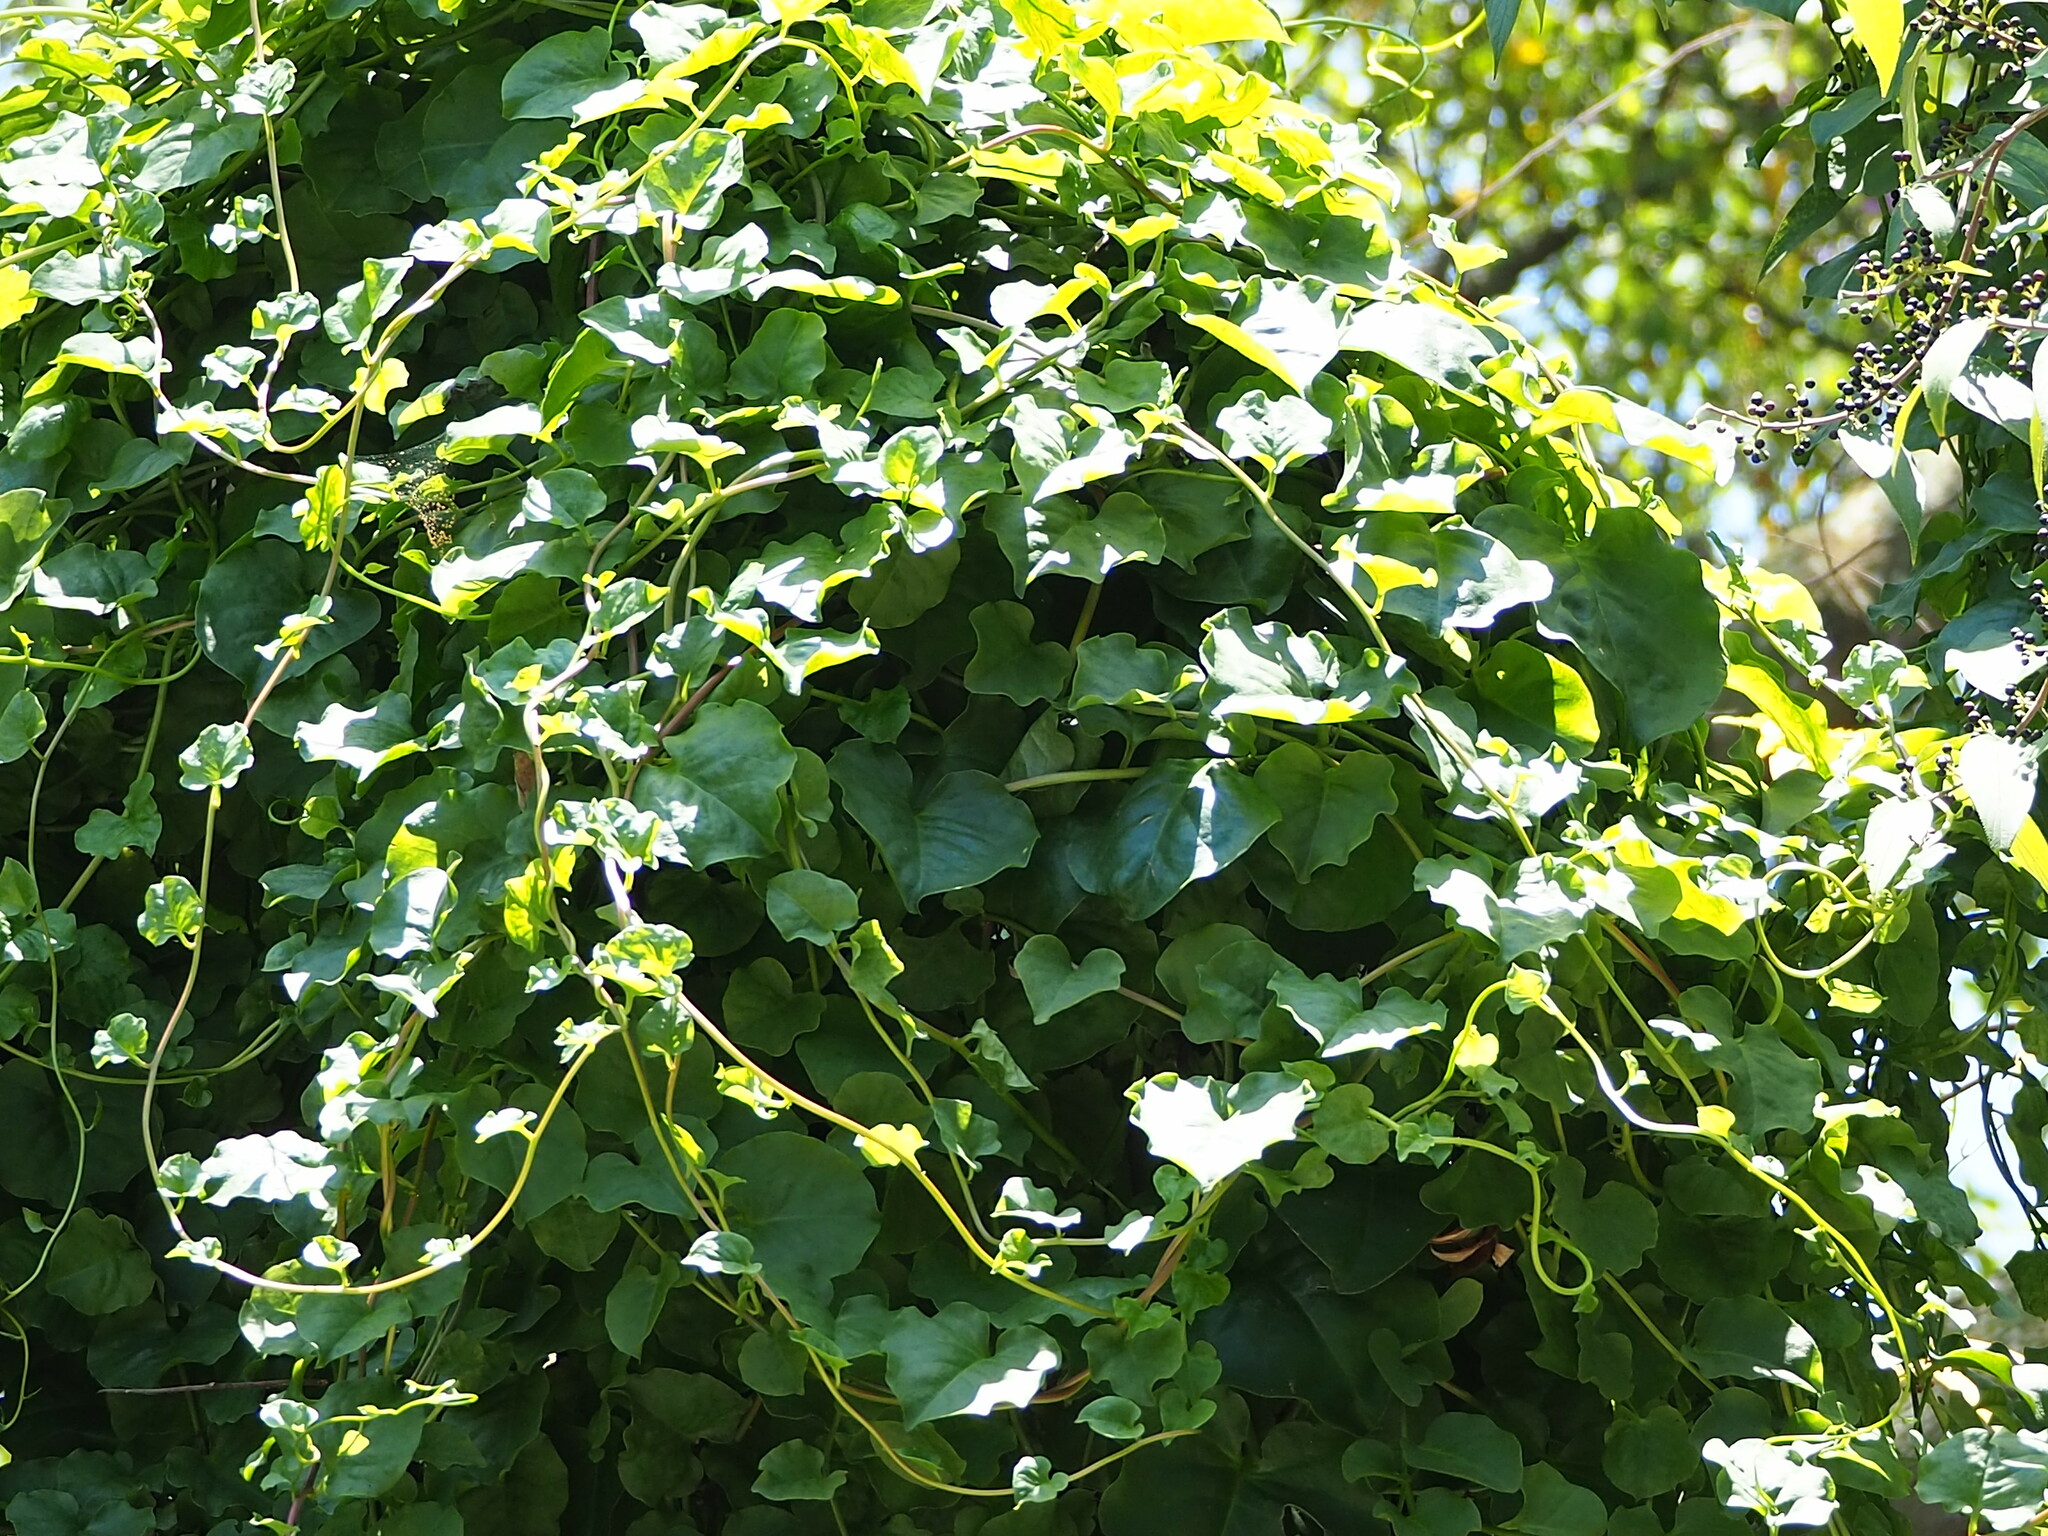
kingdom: Plantae
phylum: Tracheophyta
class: Magnoliopsida
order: Caryophyllales
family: Basellaceae
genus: Anredera
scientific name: Anredera cordifolia
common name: Heartleaf madeiravine
